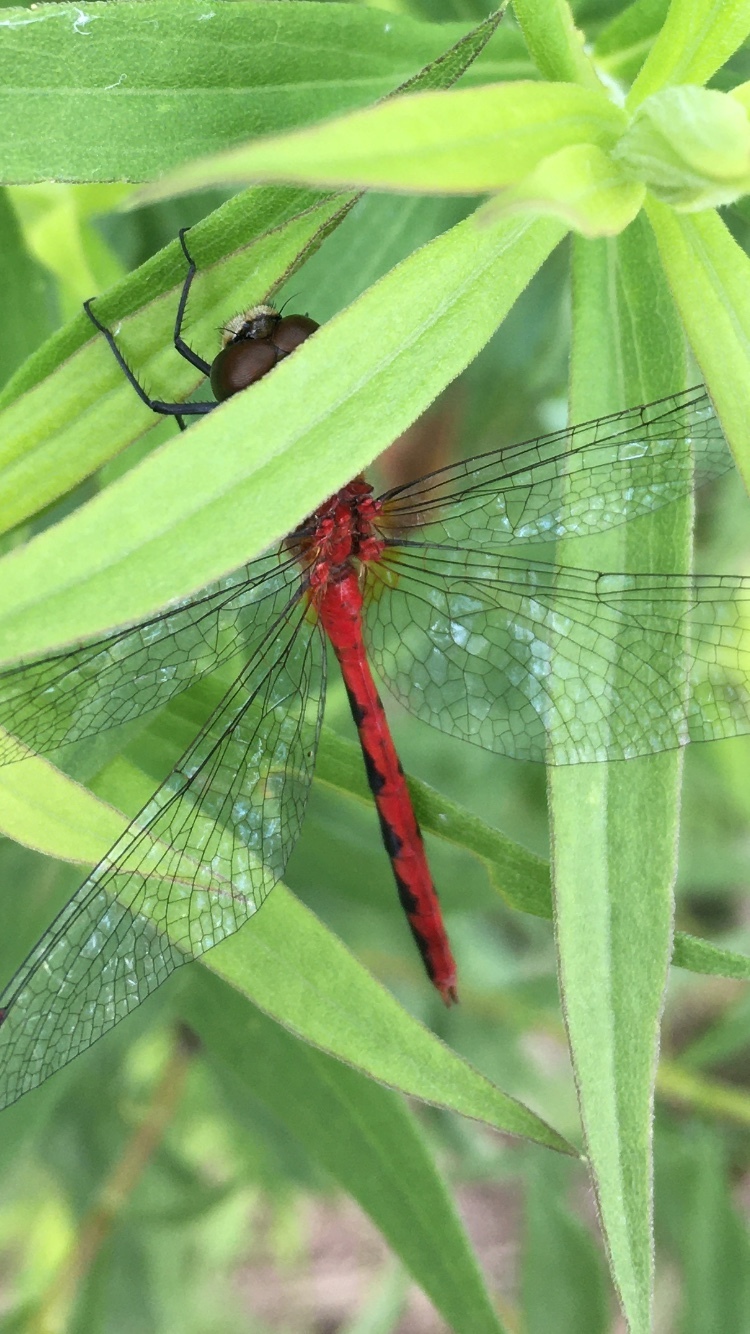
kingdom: Animalia
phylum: Arthropoda
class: Insecta
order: Odonata
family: Libellulidae
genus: Sympetrum
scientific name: Sympetrum obtrusum
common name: White-faced meadowhawk
